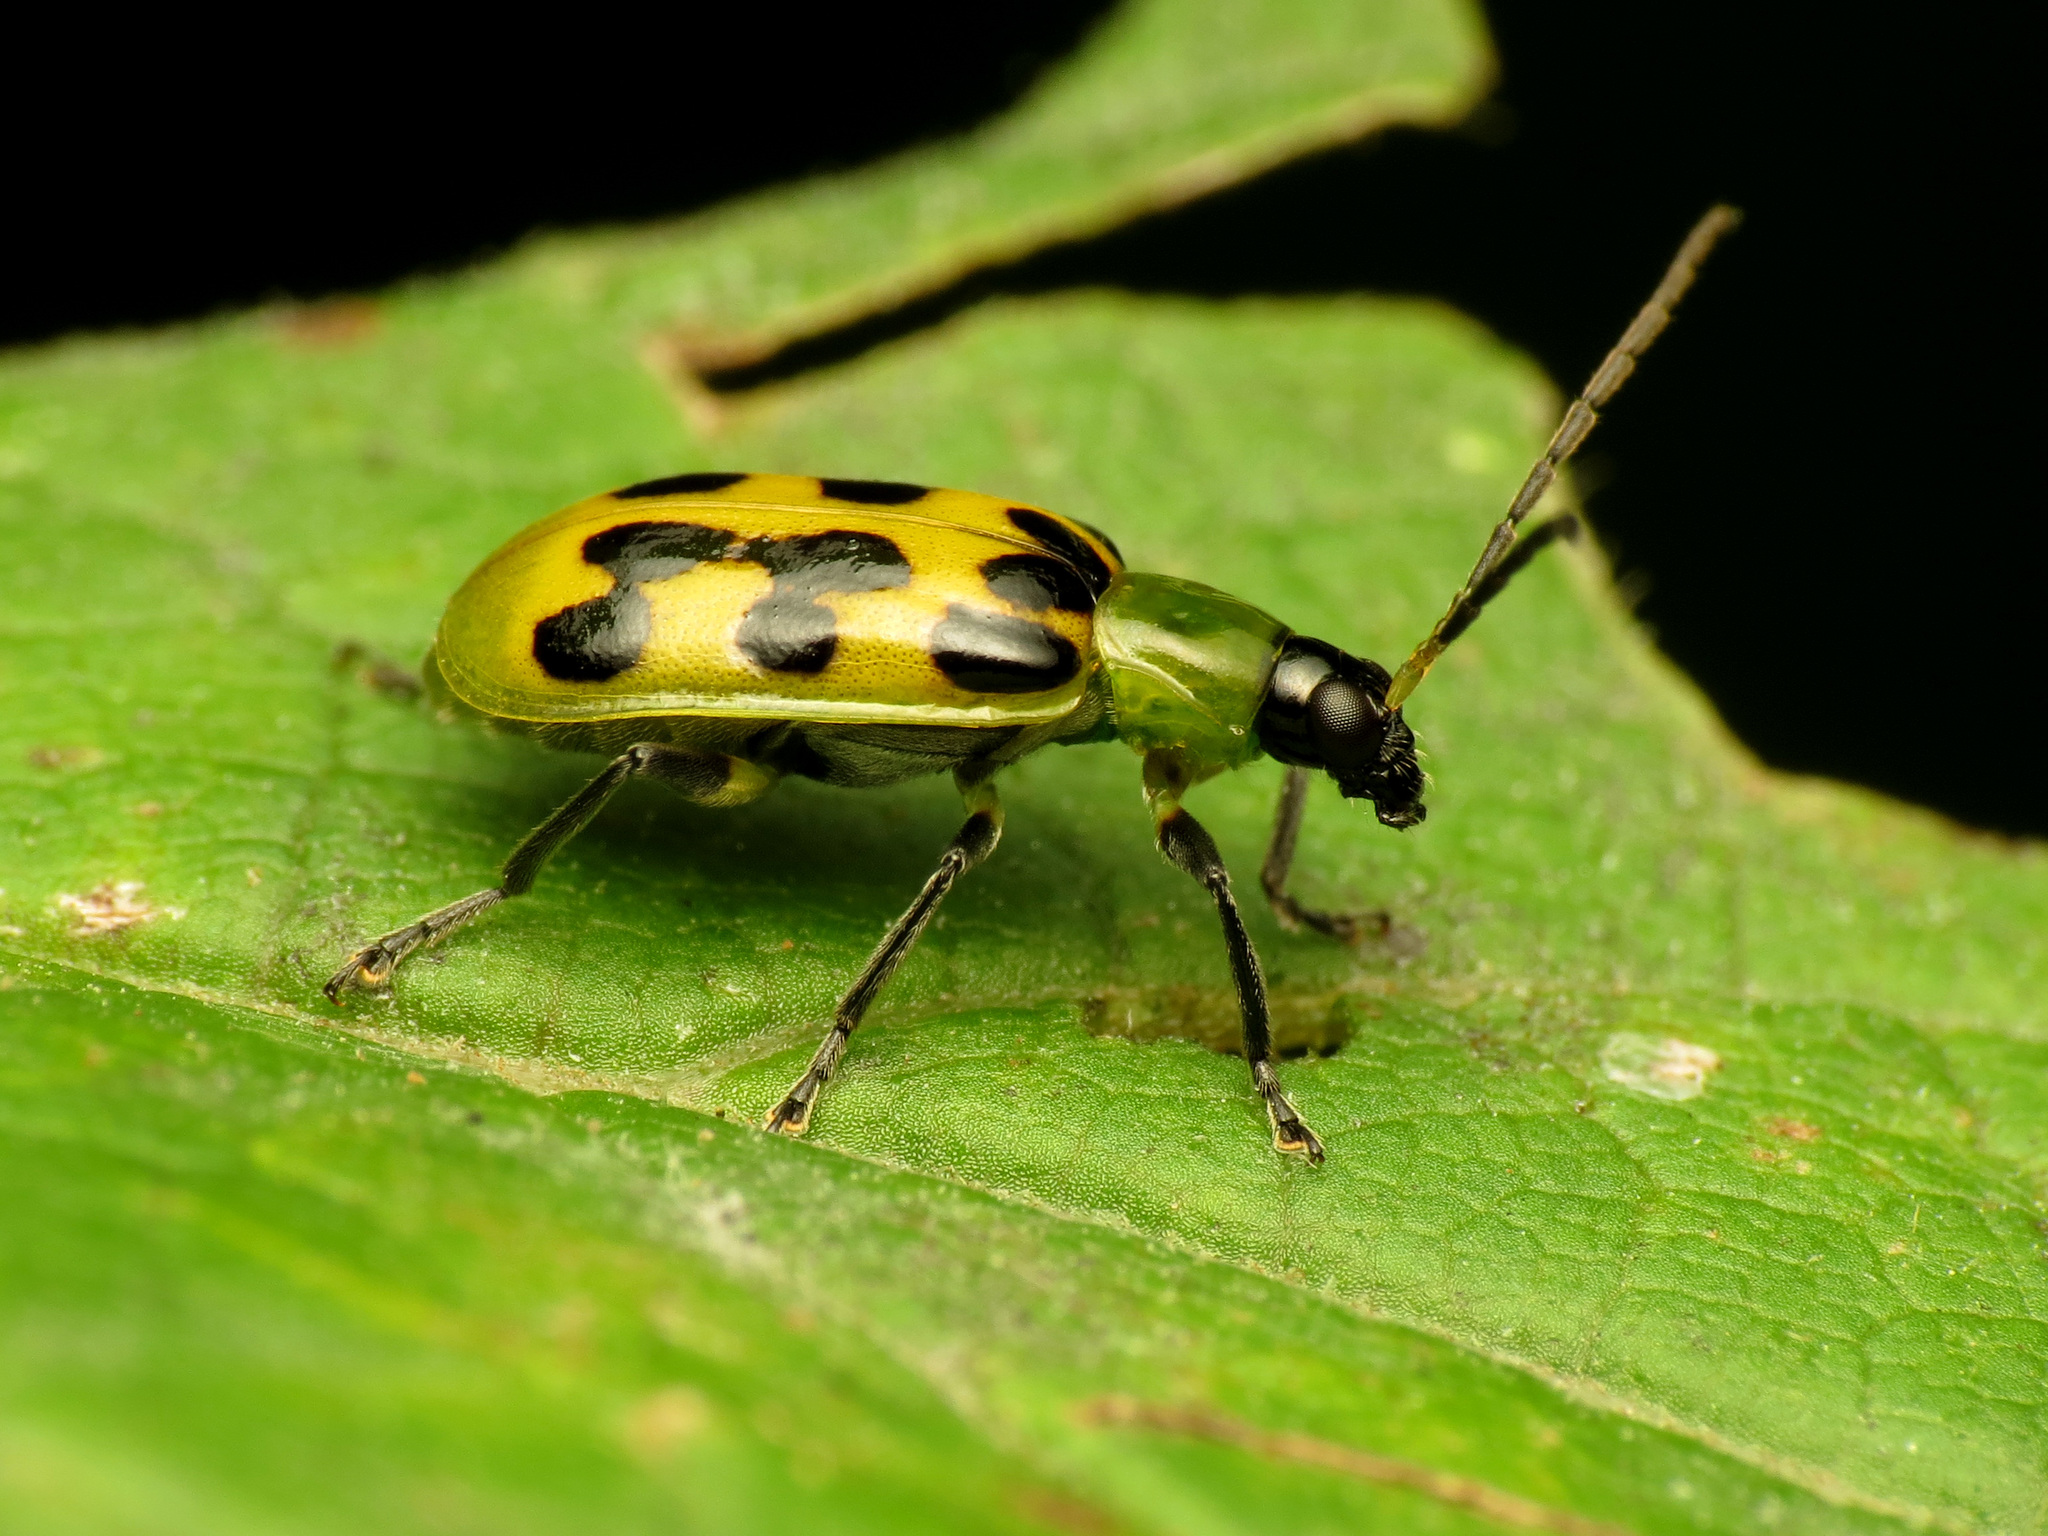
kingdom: Animalia
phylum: Arthropoda
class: Insecta
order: Coleoptera
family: Chrysomelidae
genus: Diabrotica
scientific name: Diabrotica undecimpunctata
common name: Spotted cucumber beetle
